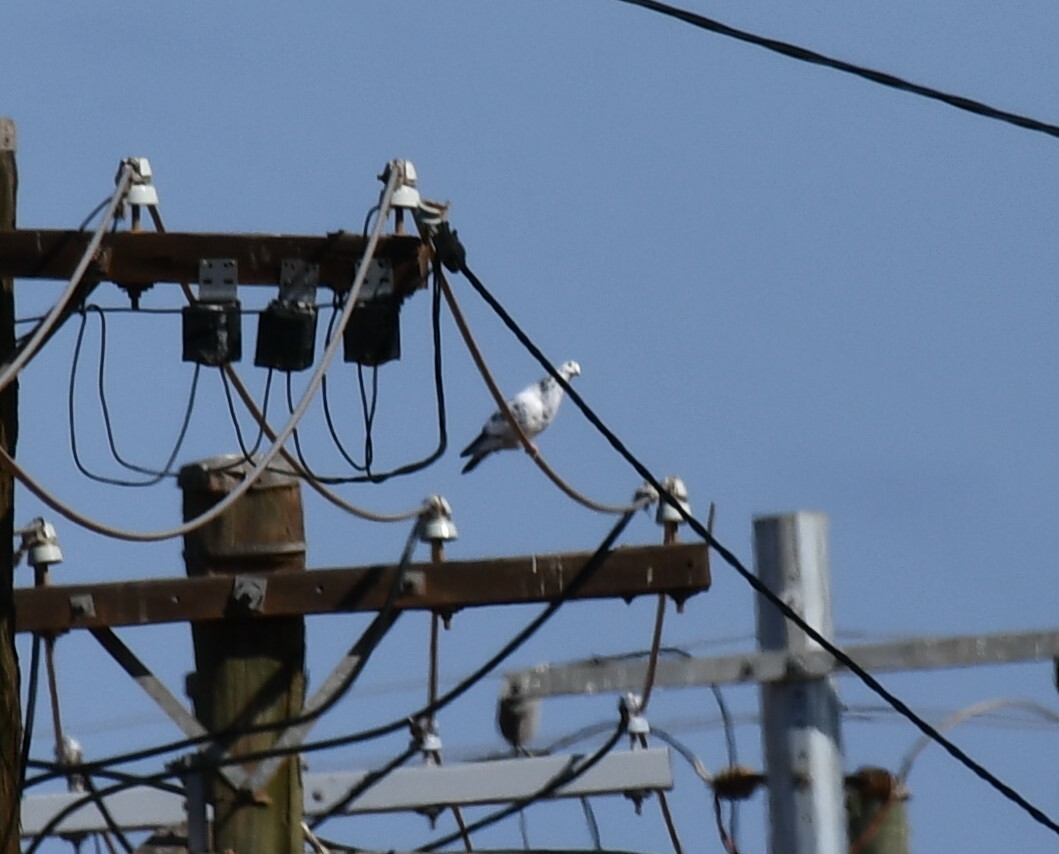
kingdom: Animalia
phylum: Chordata
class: Aves
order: Columbiformes
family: Columbidae
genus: Columba
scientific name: Columba livia
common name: Rock pigeon
